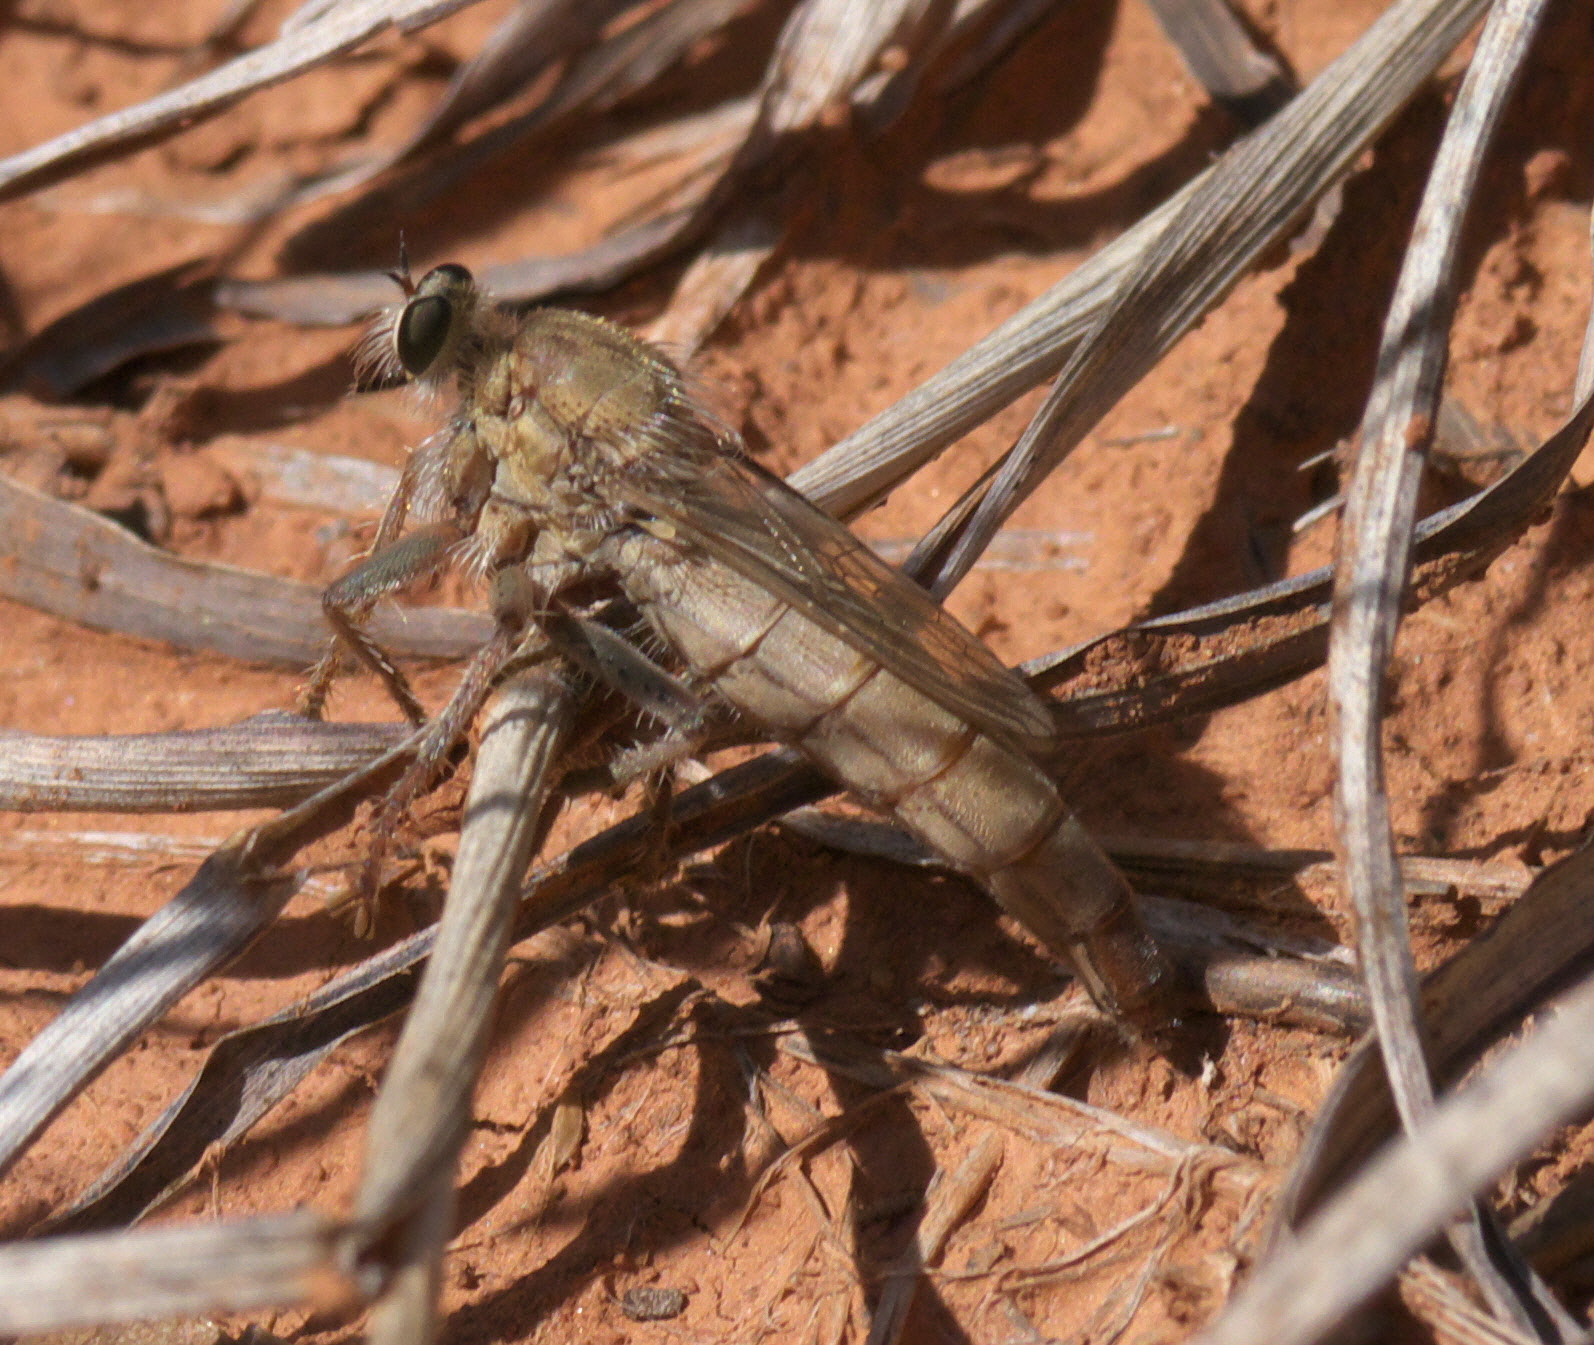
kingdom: Animalia
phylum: Arthropoda
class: Insecta
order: Diptera
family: Asilidae
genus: Scleropogon
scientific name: Scleropogon helvolus
